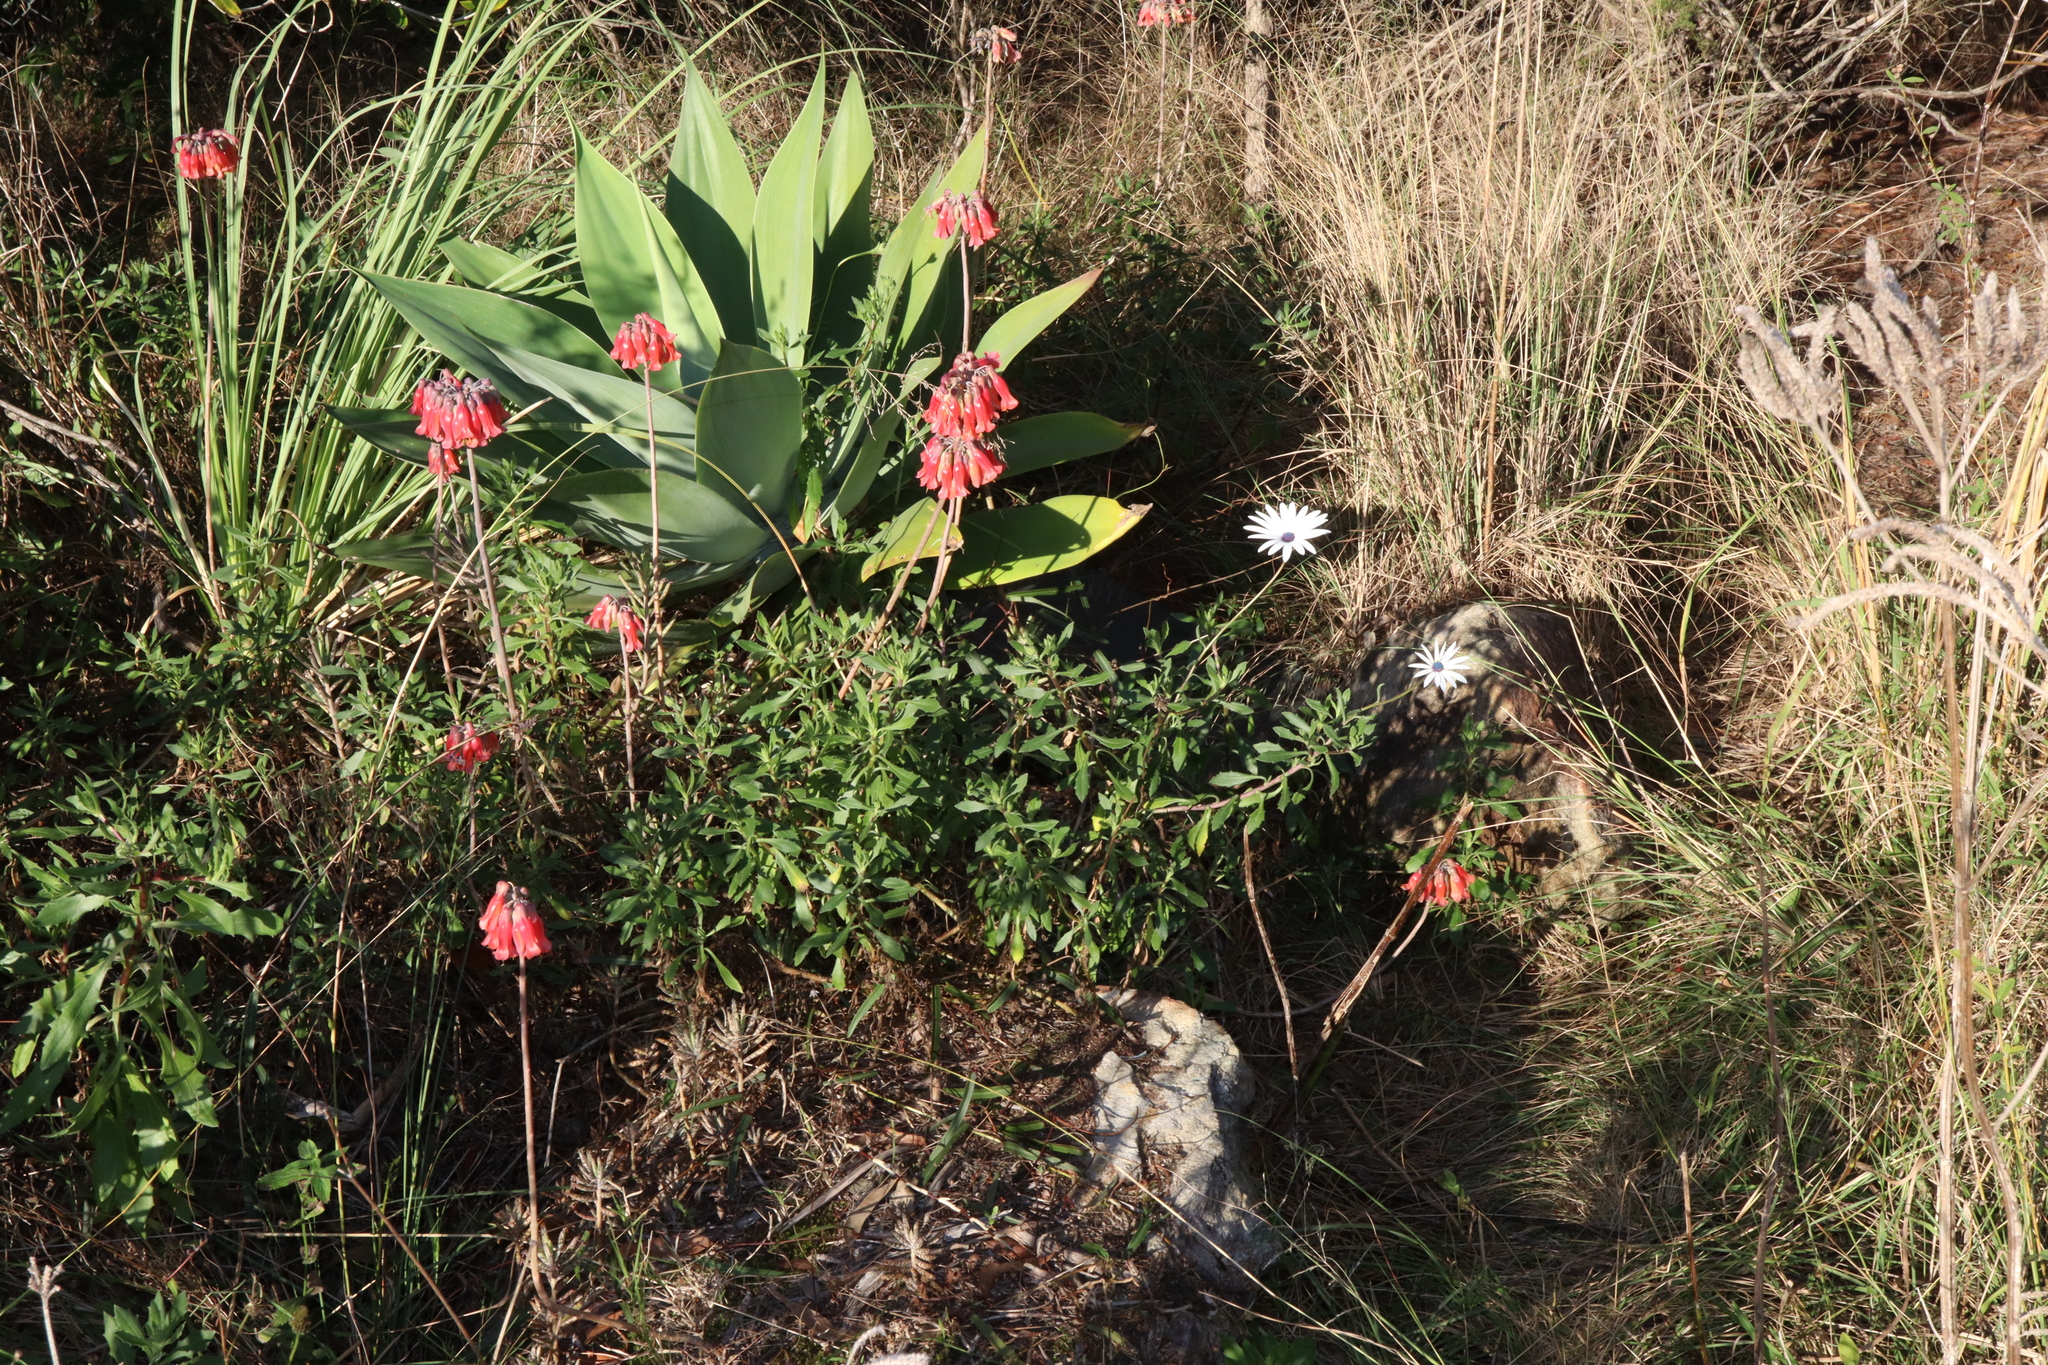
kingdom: Plantae
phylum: Tracheophyta
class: Magnoliopsida
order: Saxifragales
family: Crassulaceae
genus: Kalanchoe
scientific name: Kalanchoe delagoensis
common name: Chandelier plant
